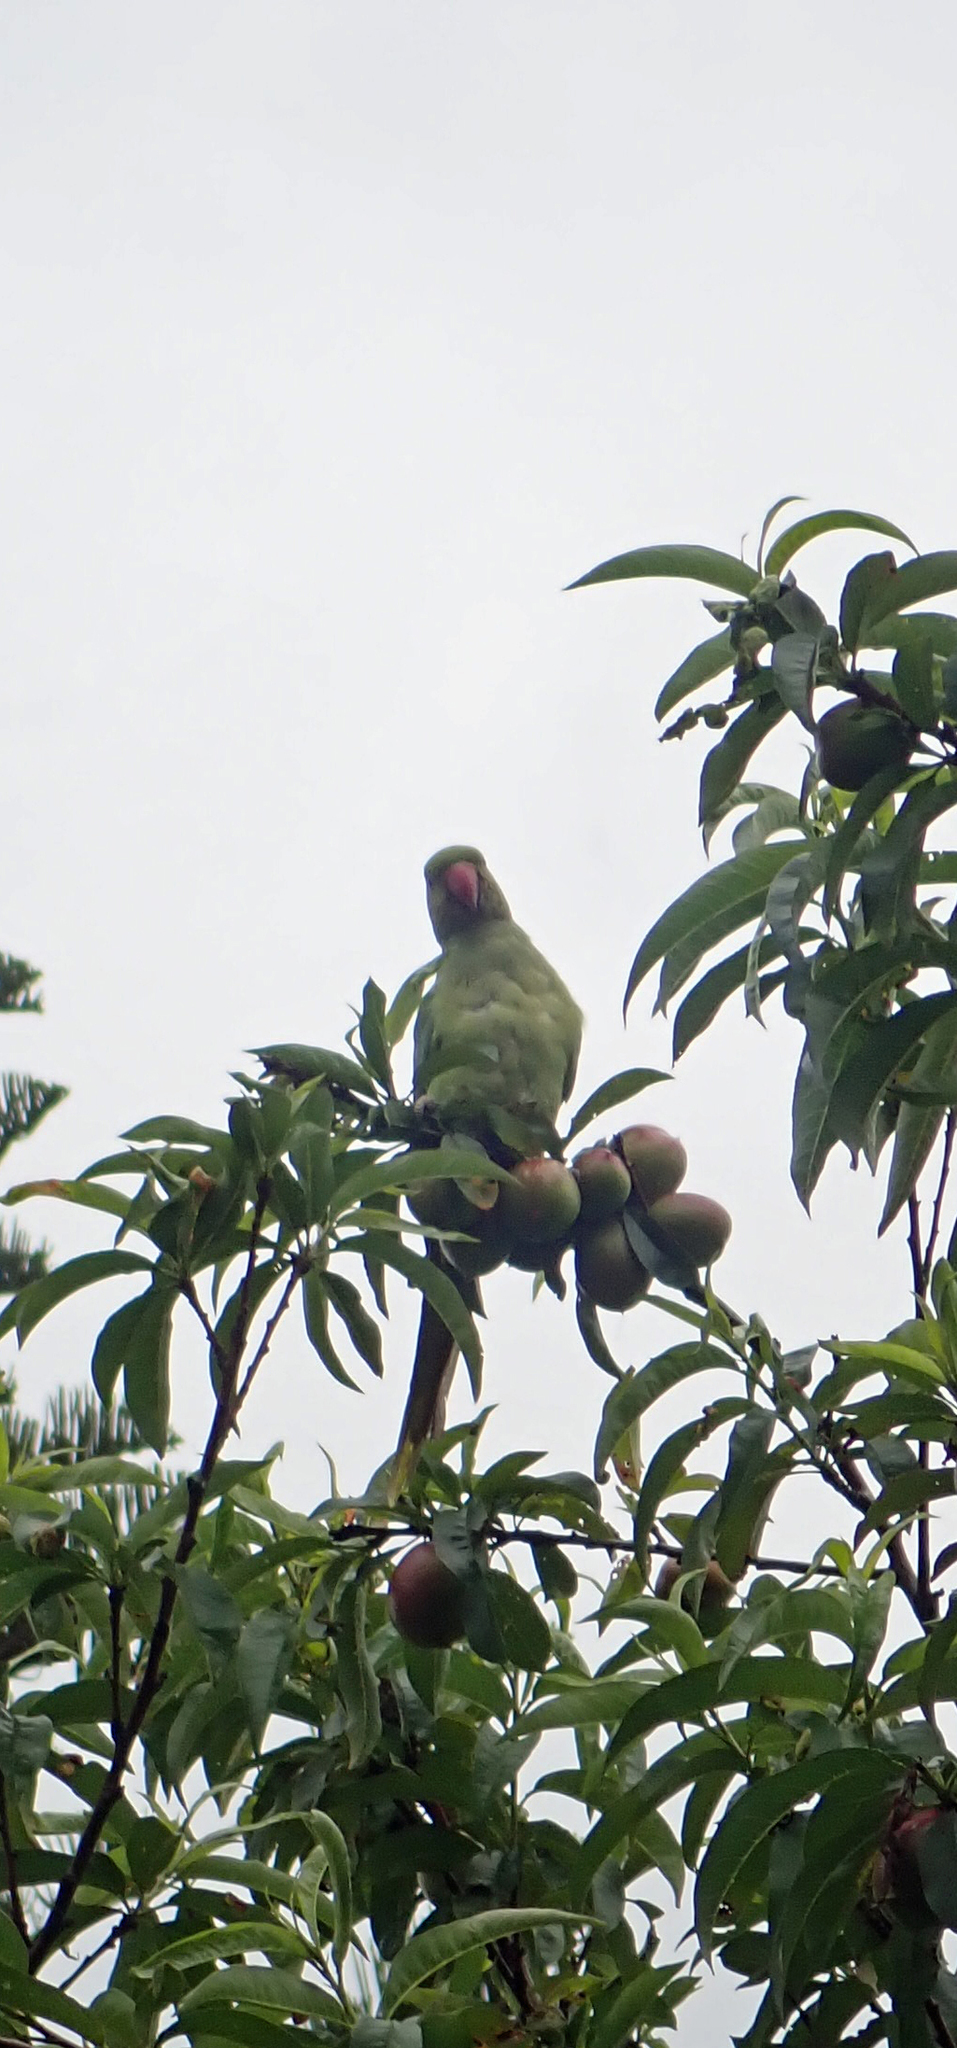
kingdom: Animalia
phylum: Chordata
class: Aves
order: Psittaciformes
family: Psittacidae
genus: Psittacula
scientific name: Psittacula krameri
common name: Rose-ringed parakeet
